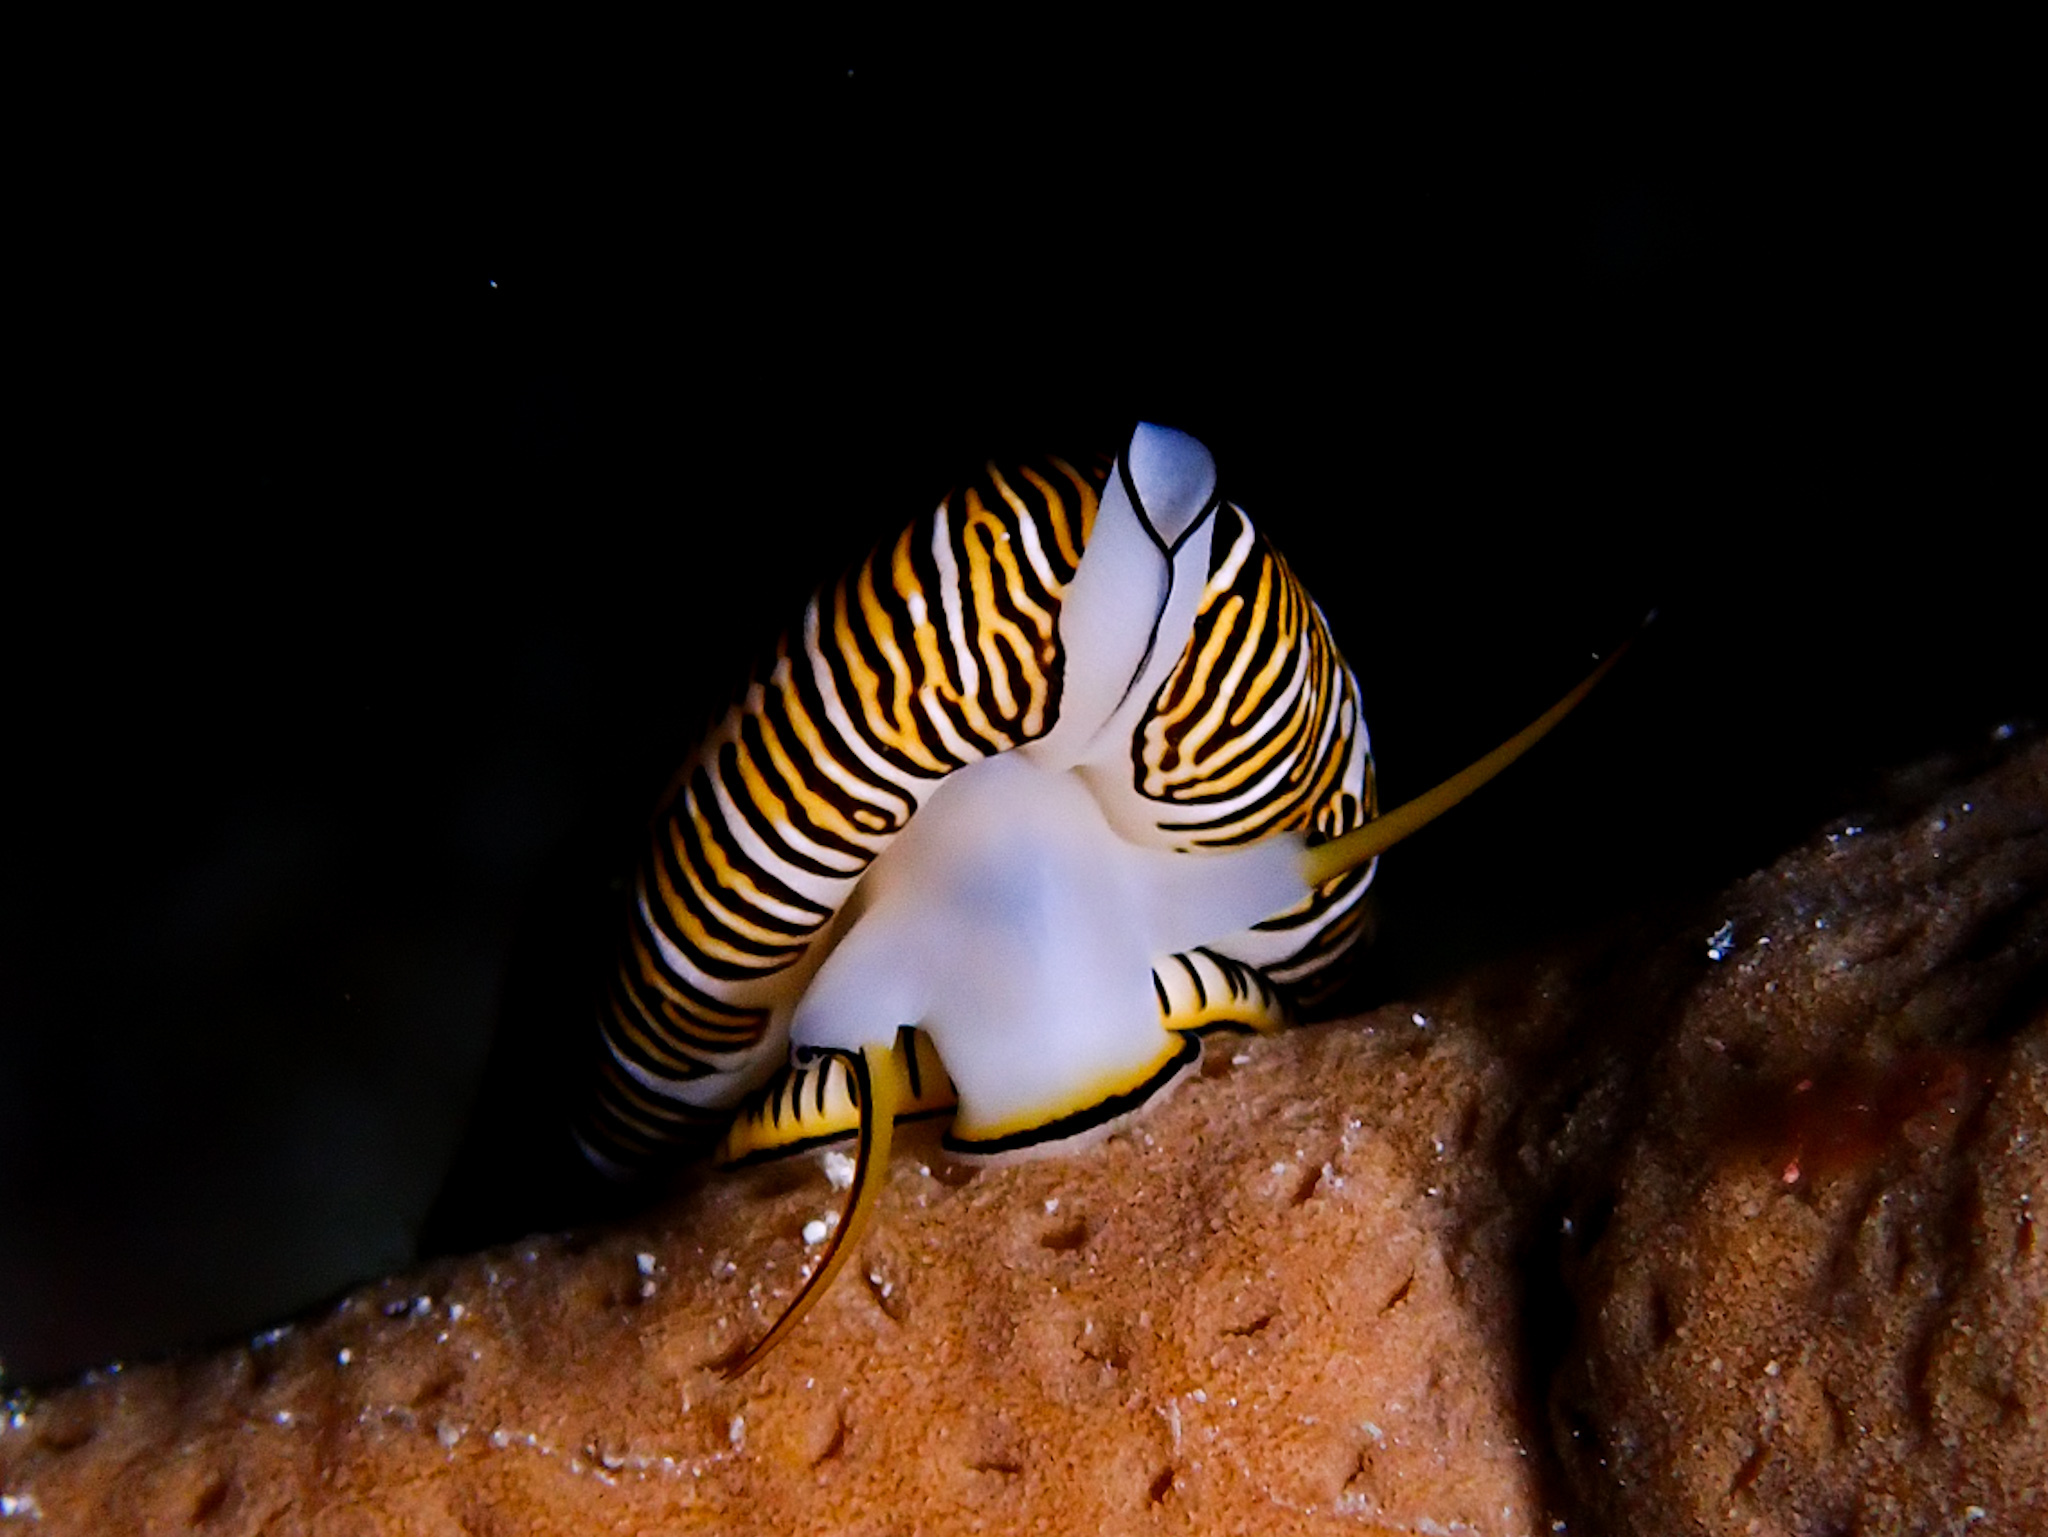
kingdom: Animalia
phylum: Mollusca
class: Gastropoda
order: Littorinimorpha
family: Ovulidae
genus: Cyphoma
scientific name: Cyphoma signatum
